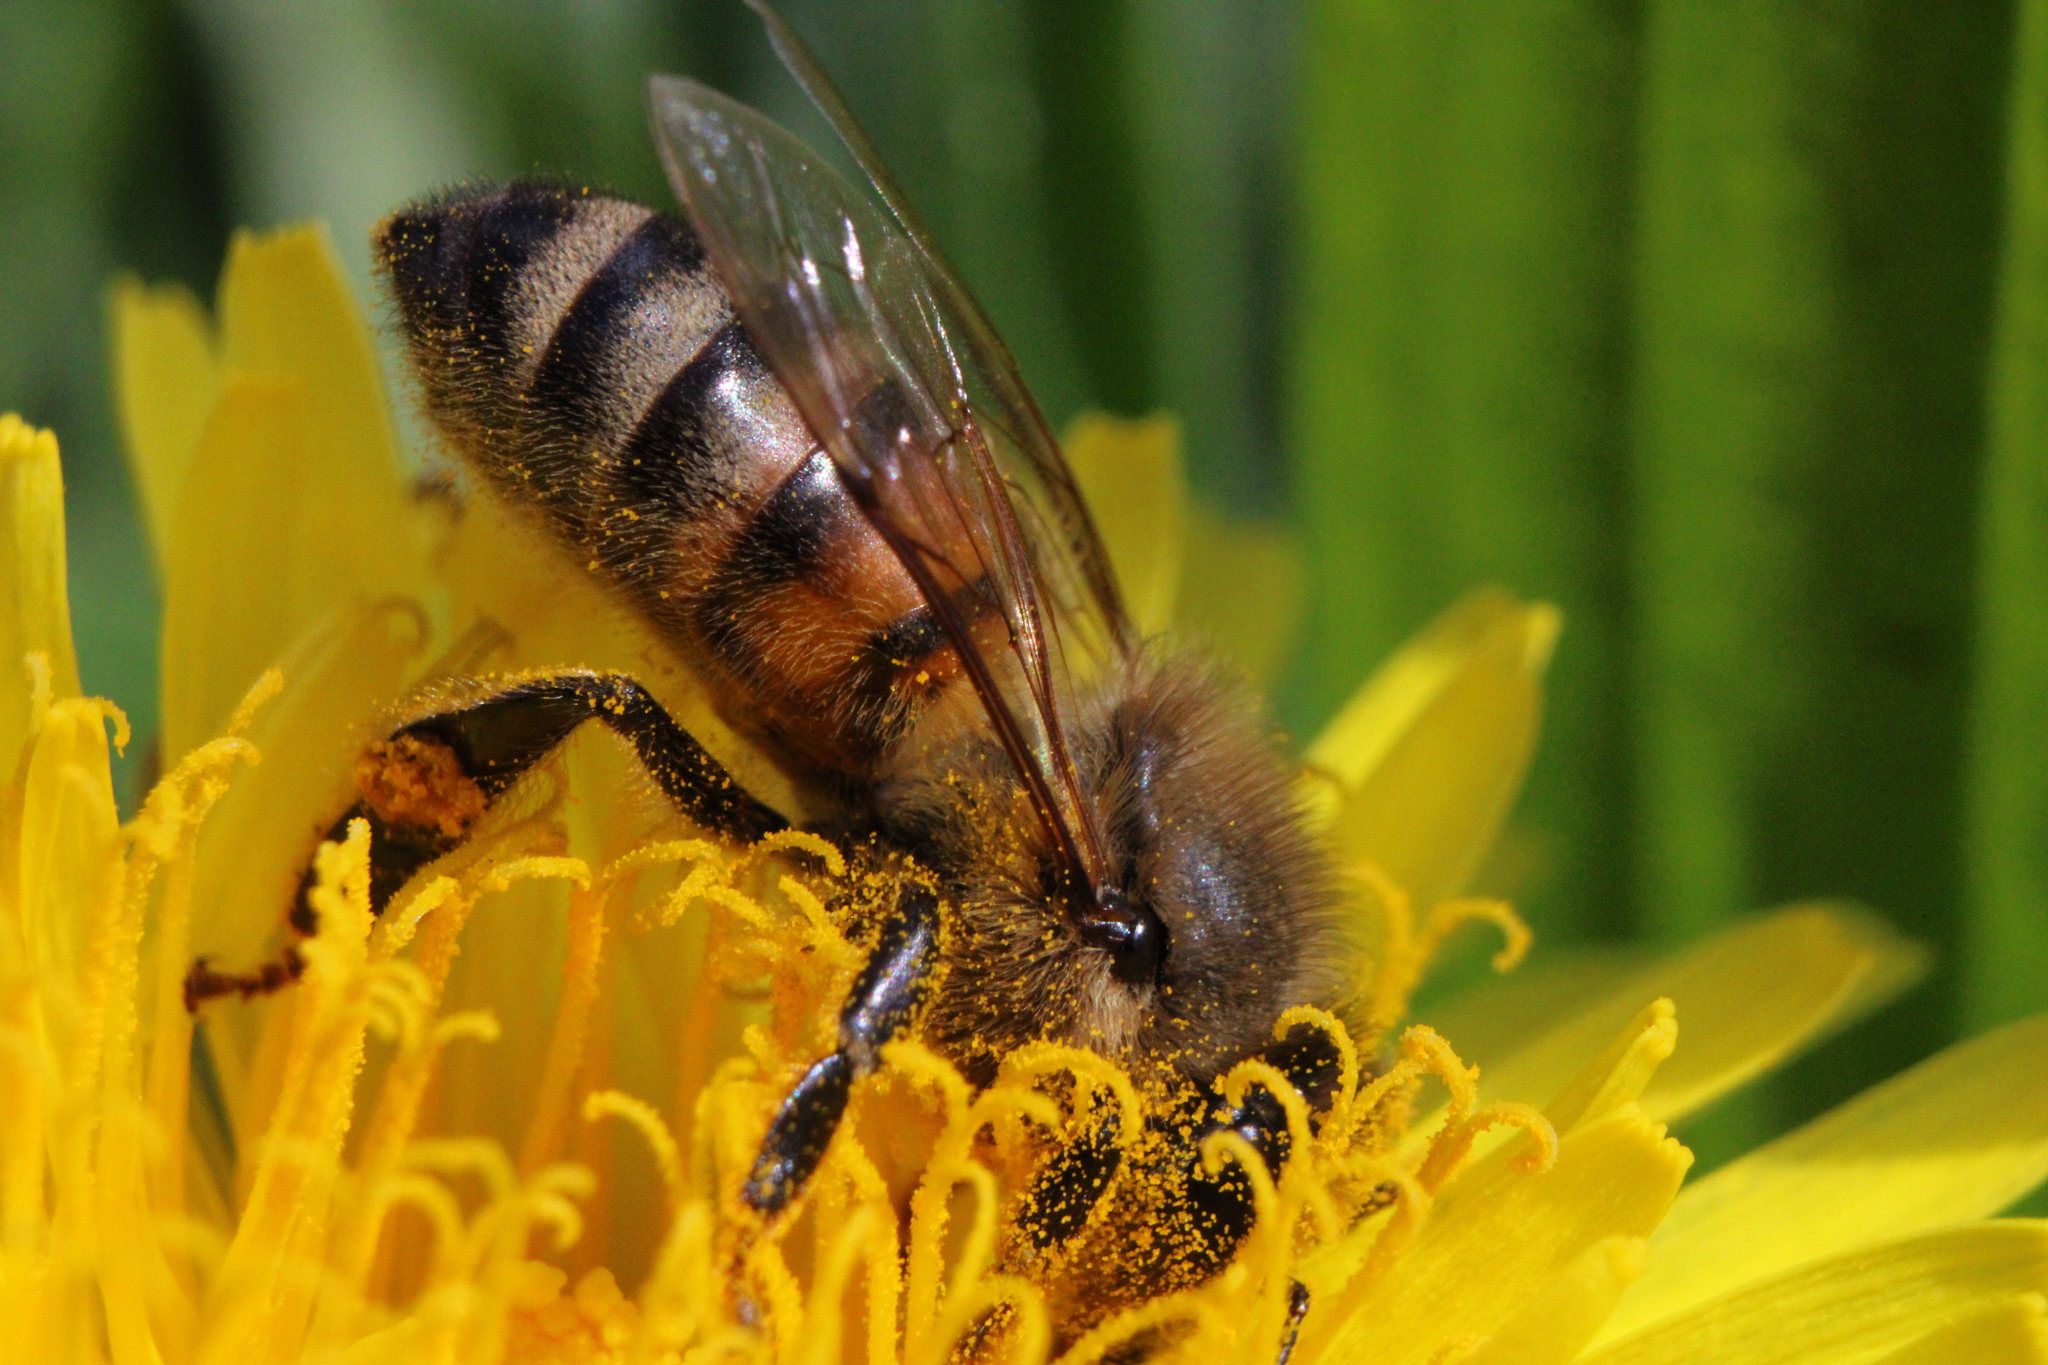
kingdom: Animalia
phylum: Arthropoda
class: Insecta
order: Hymenoptera
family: Apidae
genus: Apis
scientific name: Apis mellifera
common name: Honey bee
